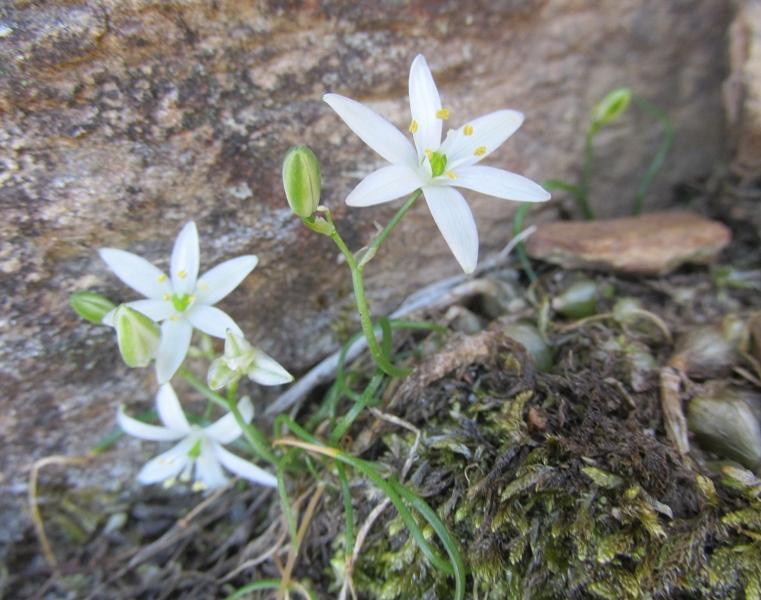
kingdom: Plantae
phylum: Tracheophyta
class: Liliopsida
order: Asparagales
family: Asparagaceae
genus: Ornithogalum
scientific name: Ornithogalum niveum
